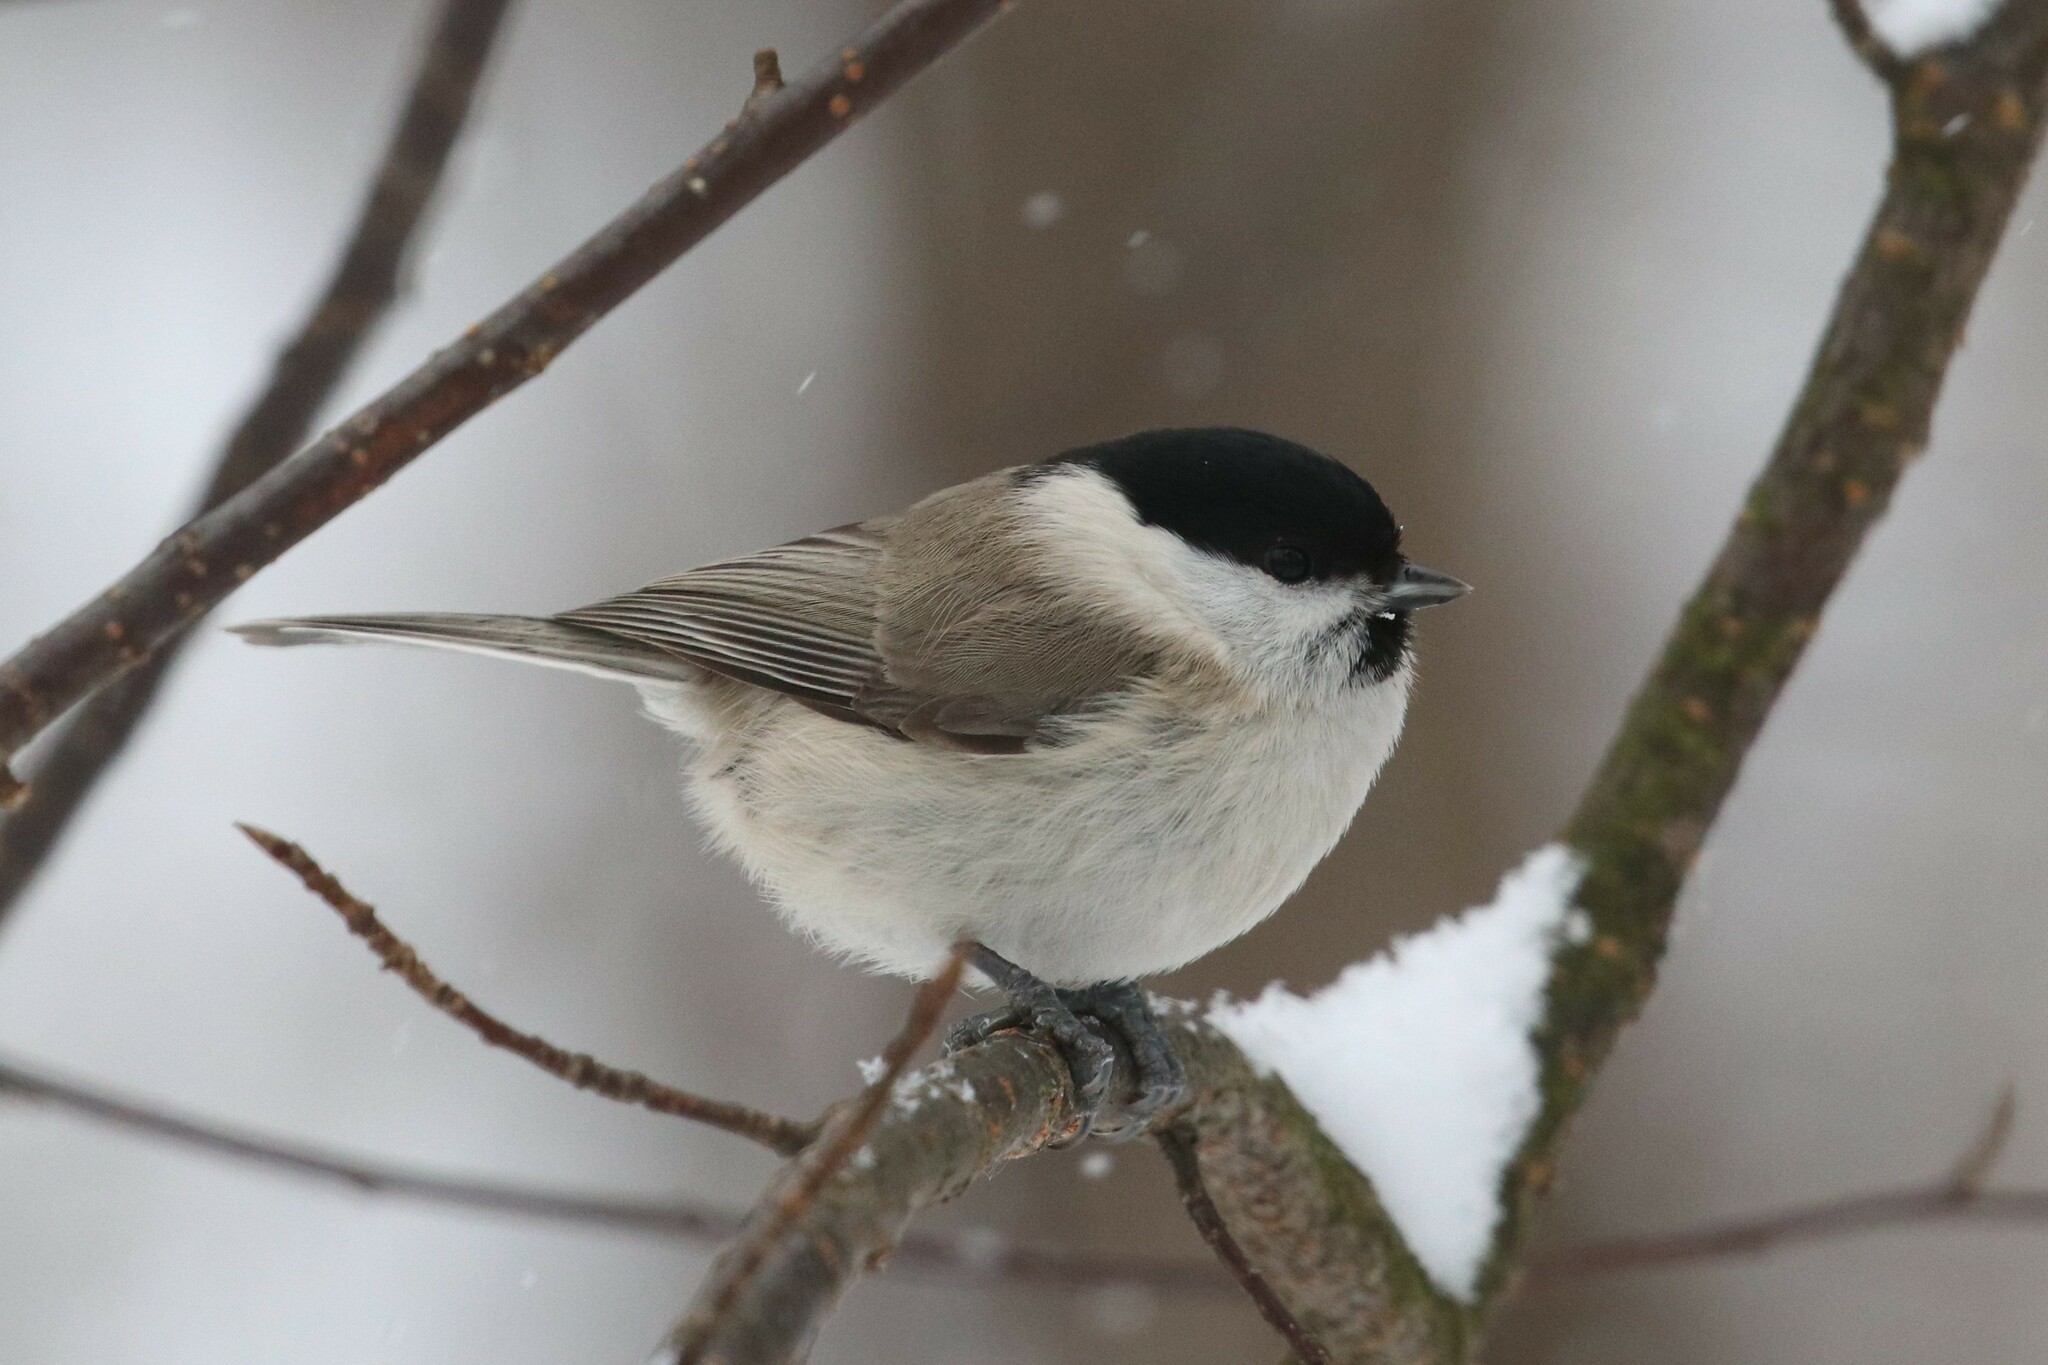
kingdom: Animalia
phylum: Chordata
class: Aves
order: Passeriformes
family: Paridae
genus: Poecile
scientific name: Poecile palustris
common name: Marsh tit
